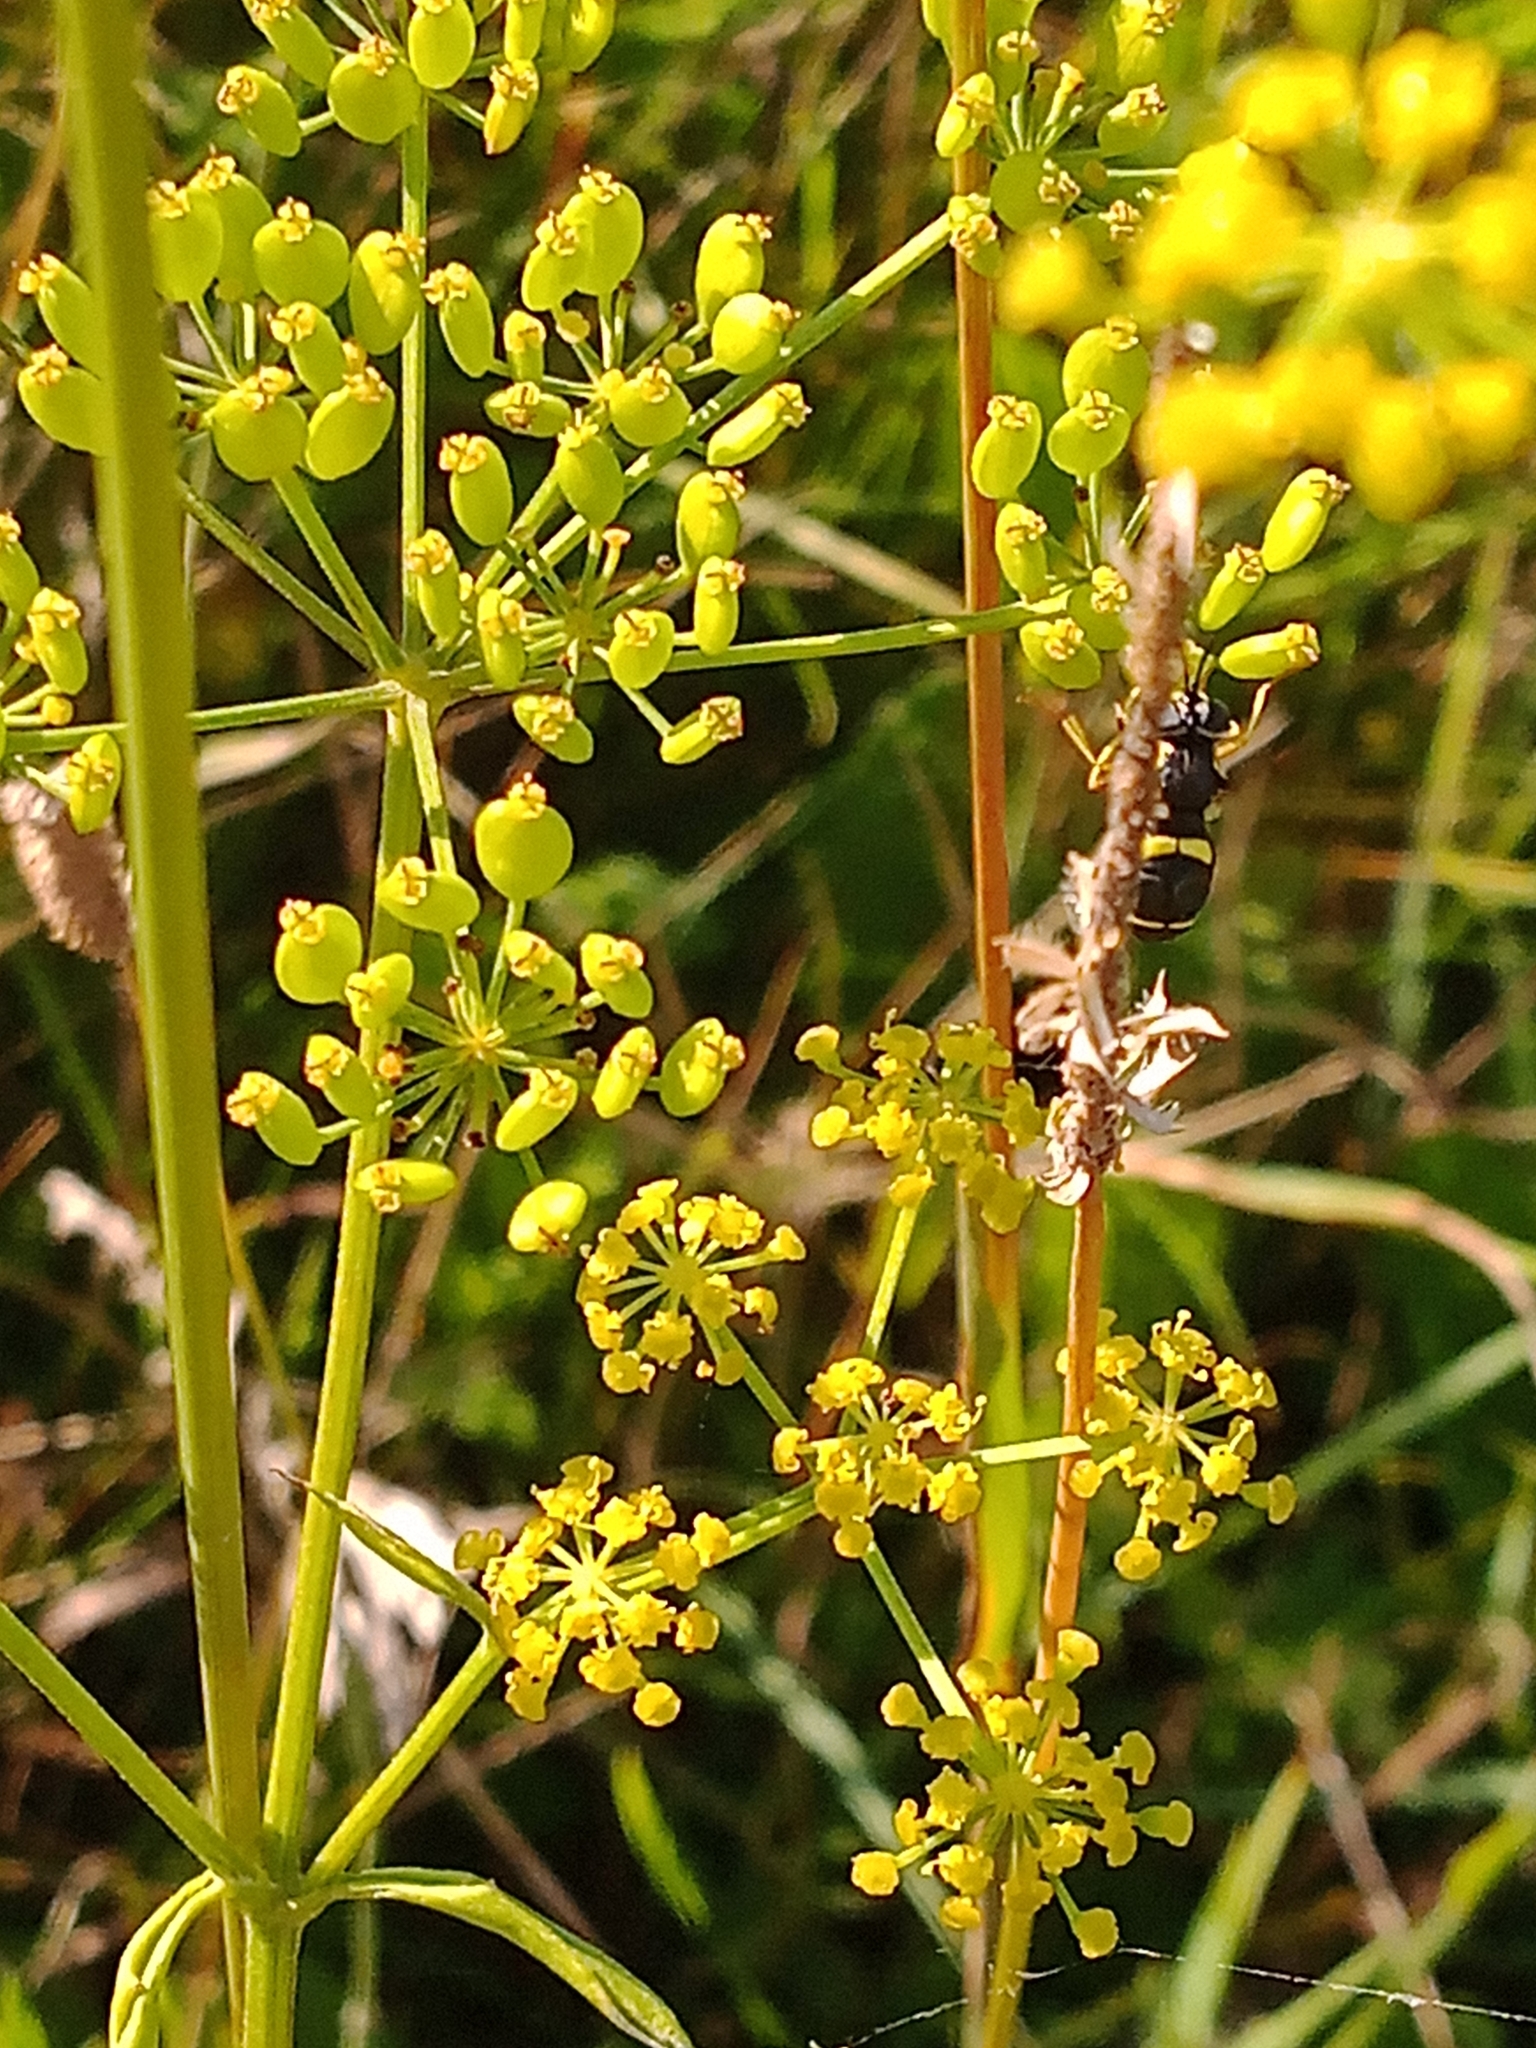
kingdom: Animalia
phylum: Arthropoda
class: Insecta
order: Diptera
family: Syrphidae
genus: Chrysotoxum
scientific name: Chrysotoxum bicincta
